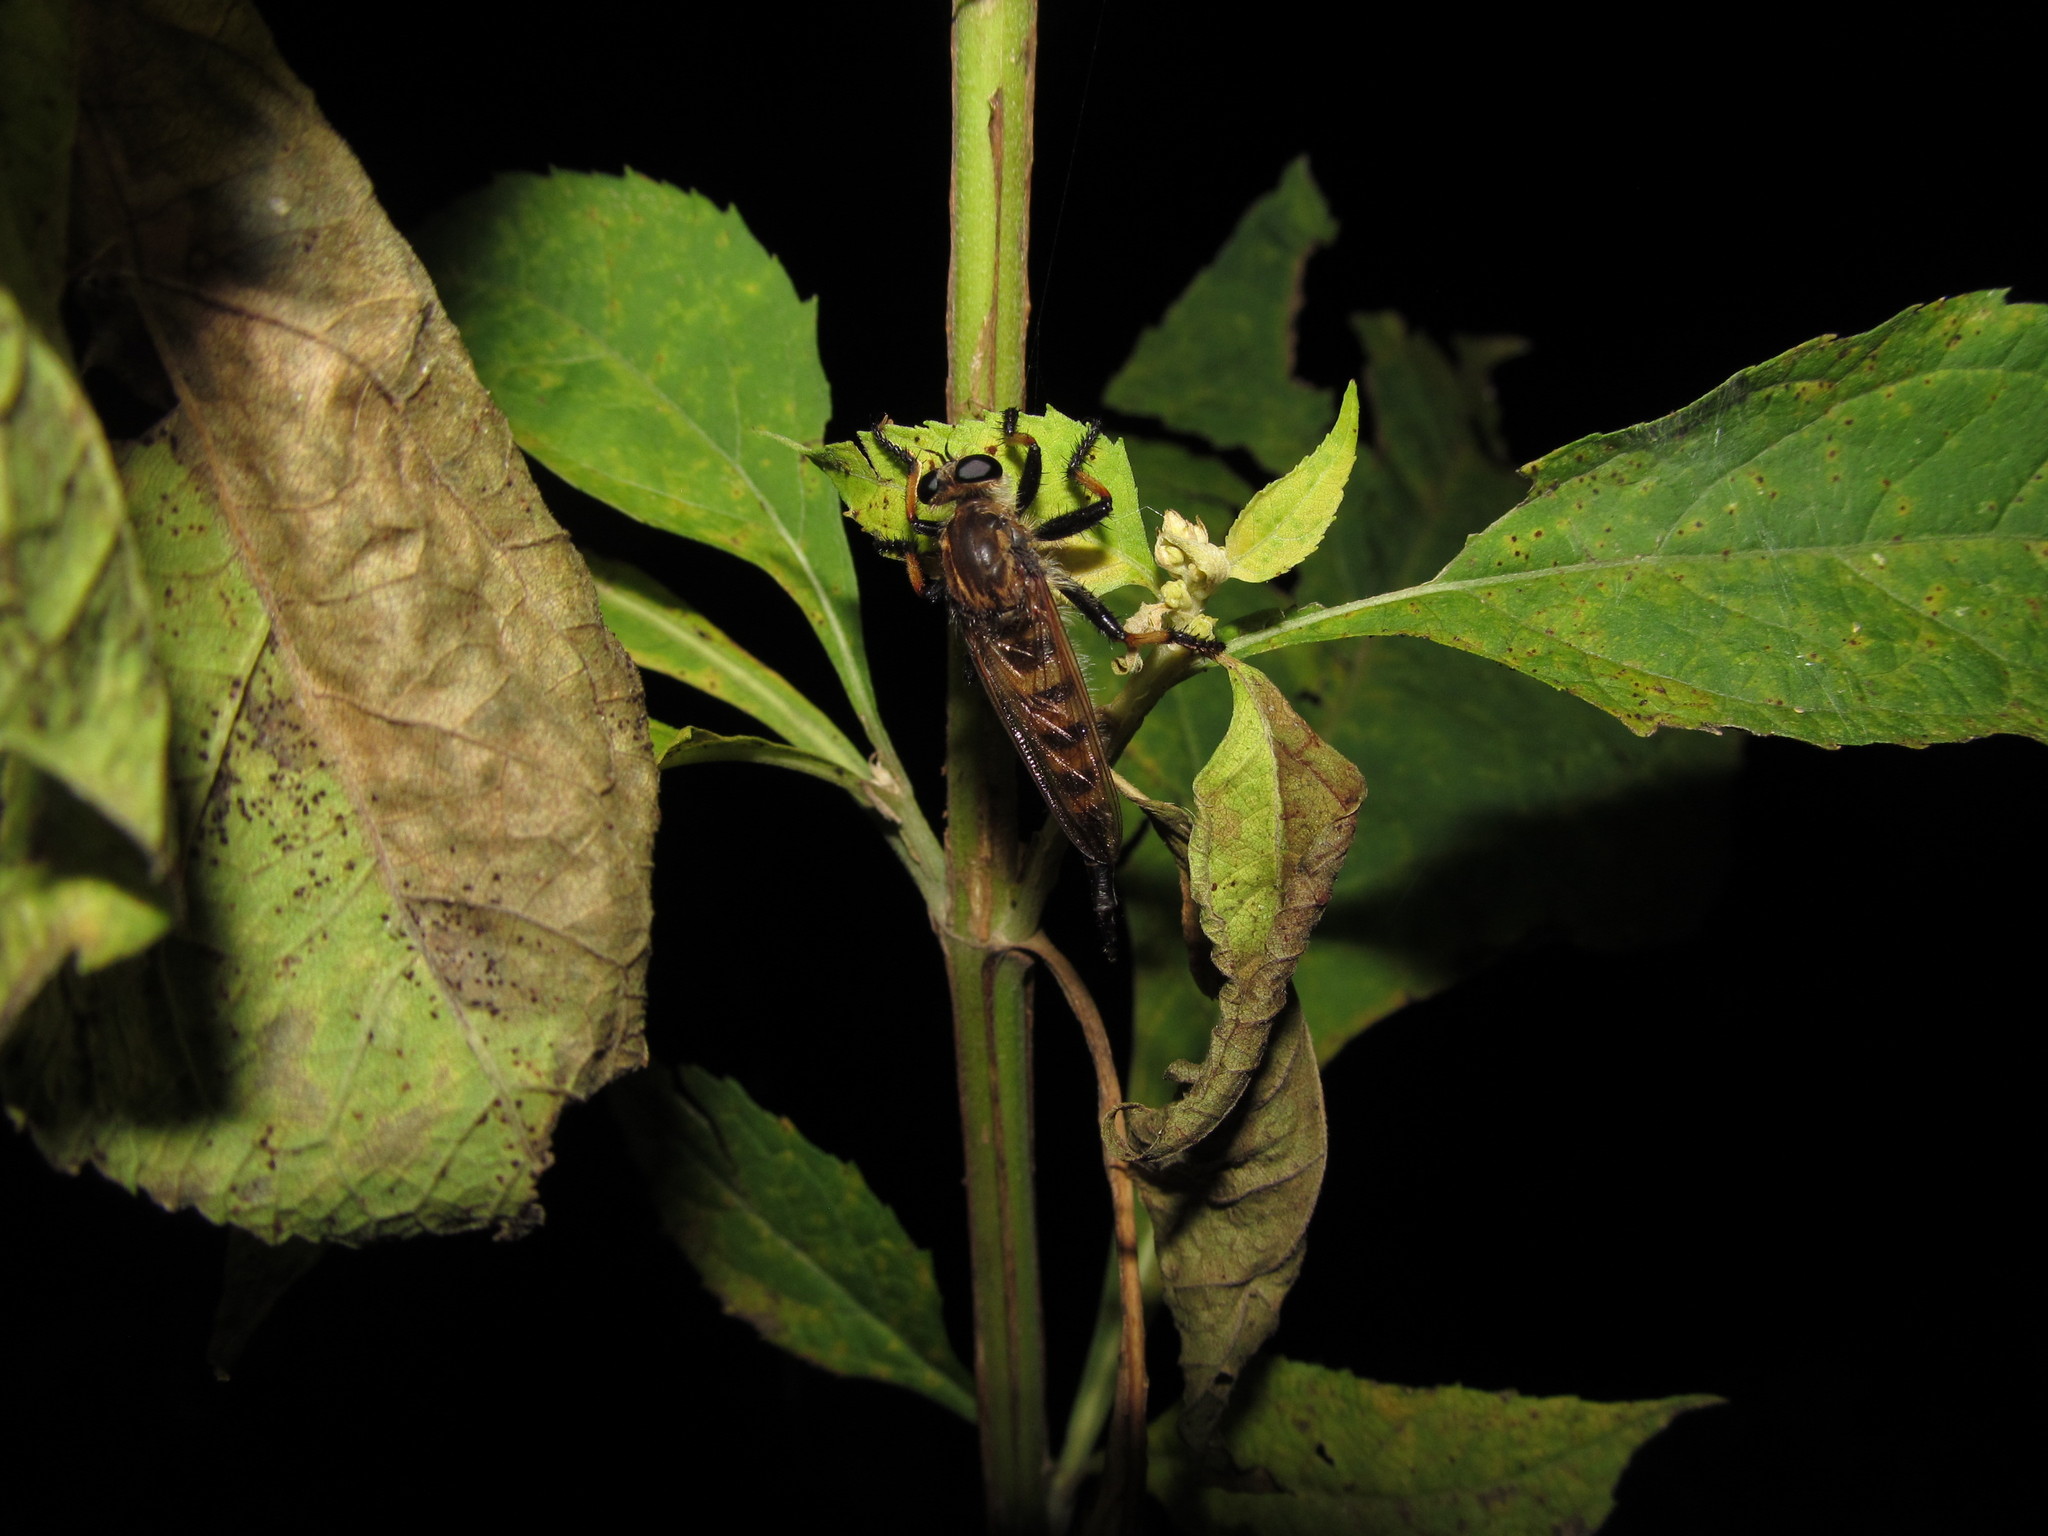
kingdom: Animalia
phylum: Arthropoda
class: Insecta
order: Diptera
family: Asilidae
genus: Promachus
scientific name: Promachus rufipes
